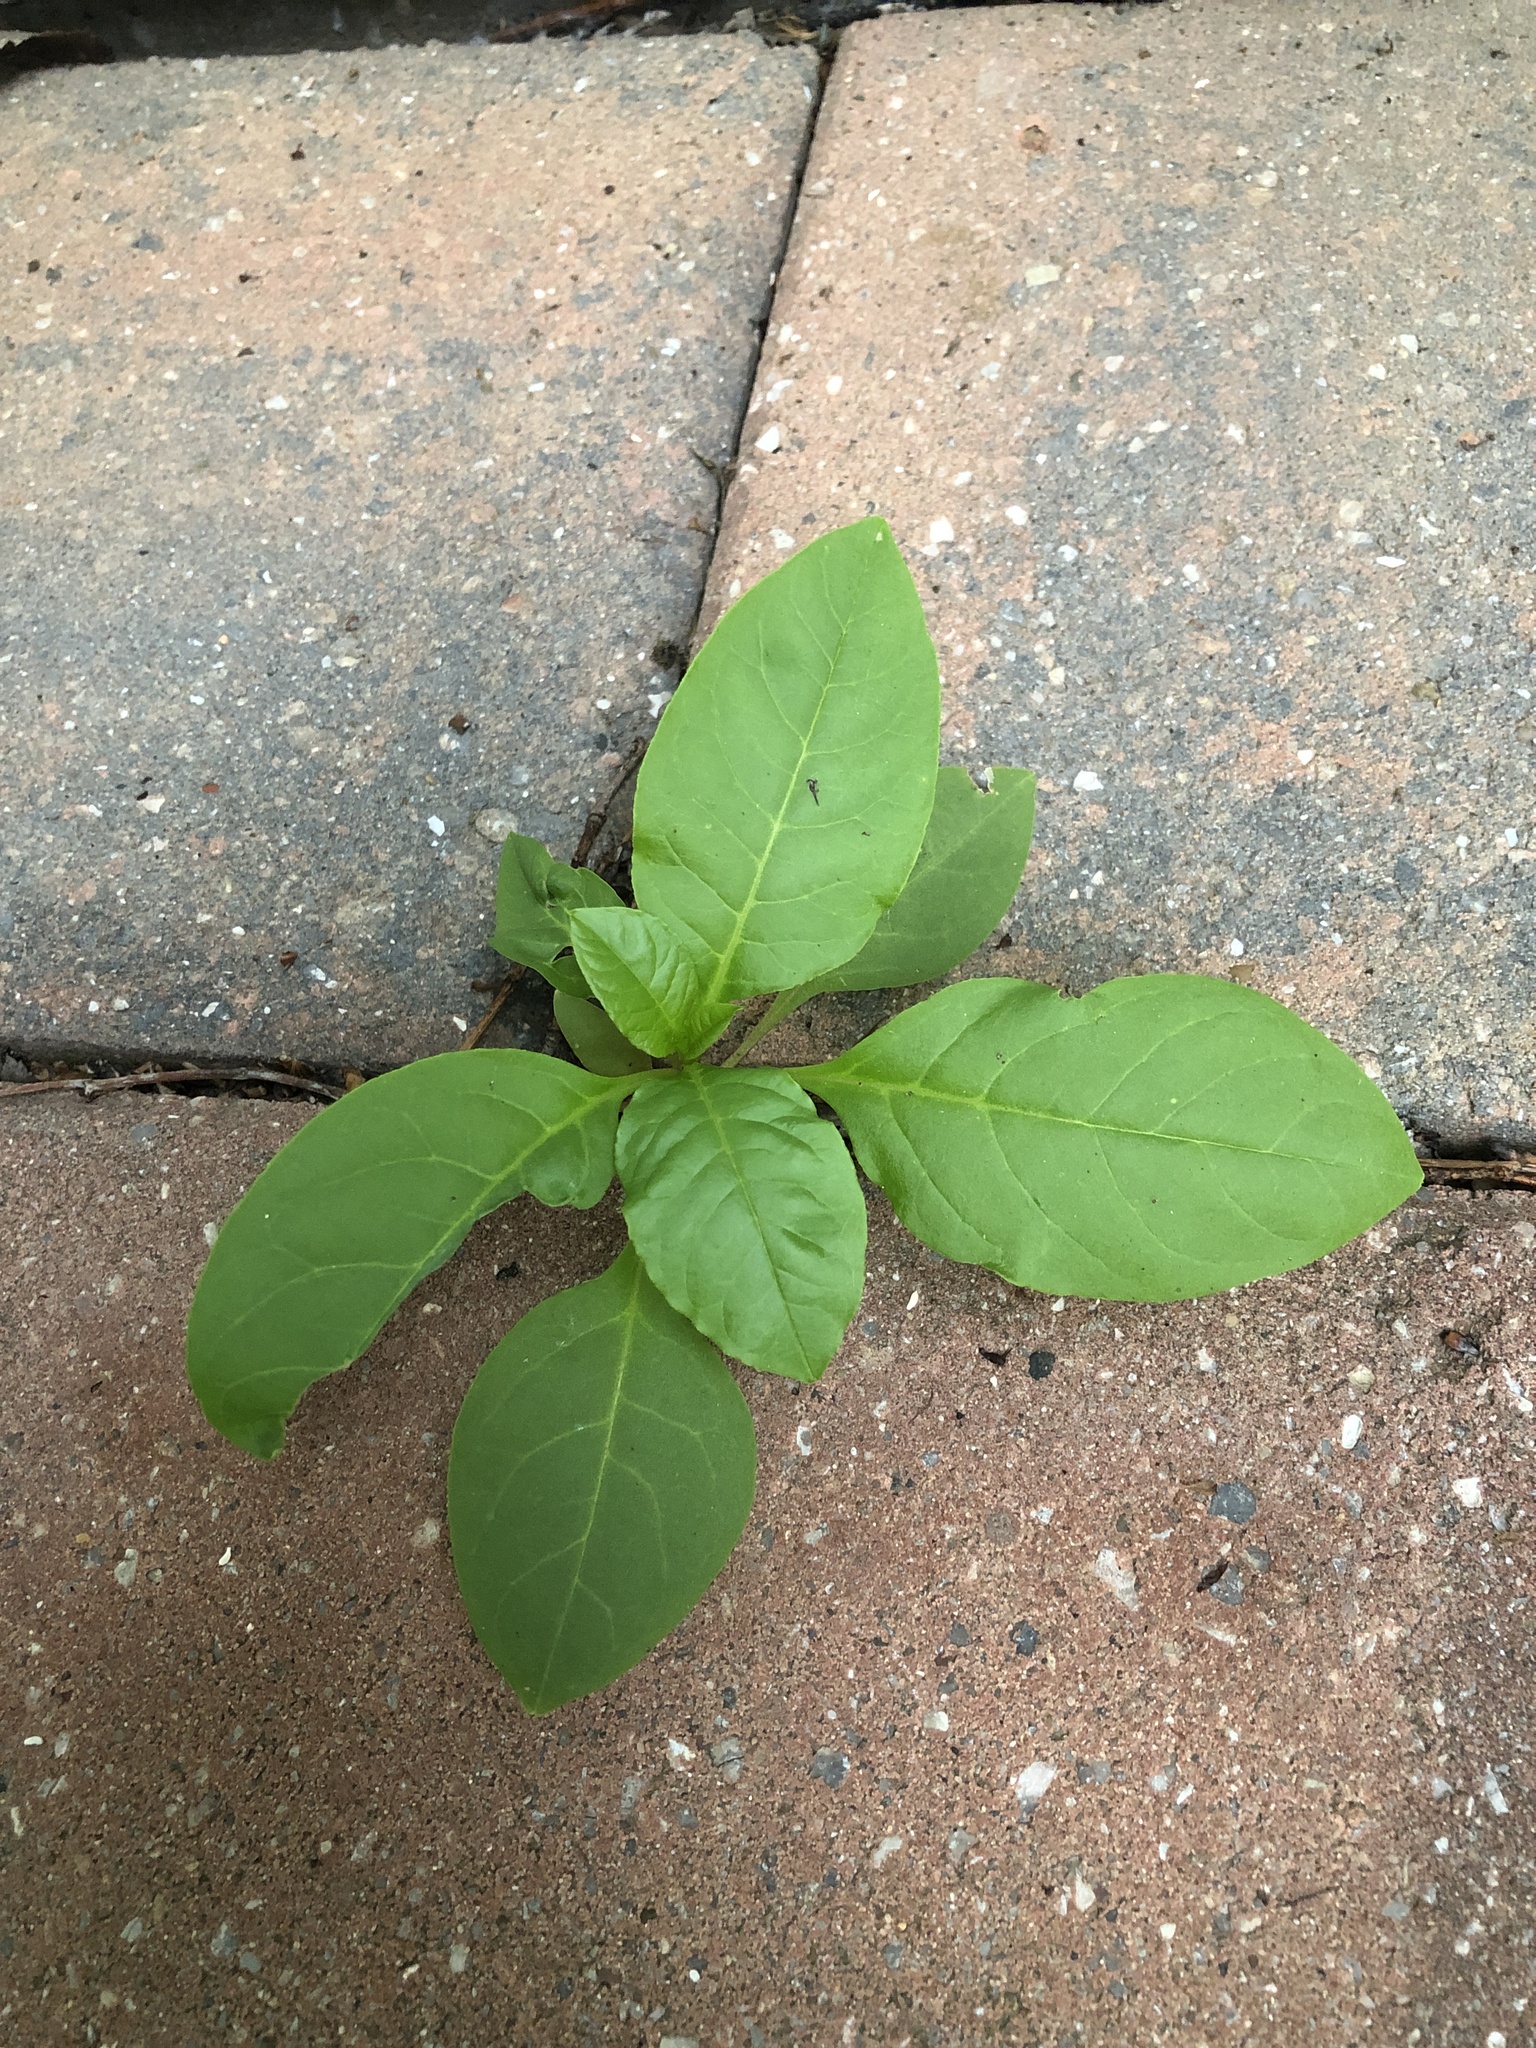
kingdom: Plantae
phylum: Tracheophyta
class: Magnoliopsida
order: Caryophyllales
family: Phytolaccaceae
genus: Phytolacca
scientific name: Phytolacca americana
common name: American pokeweed
